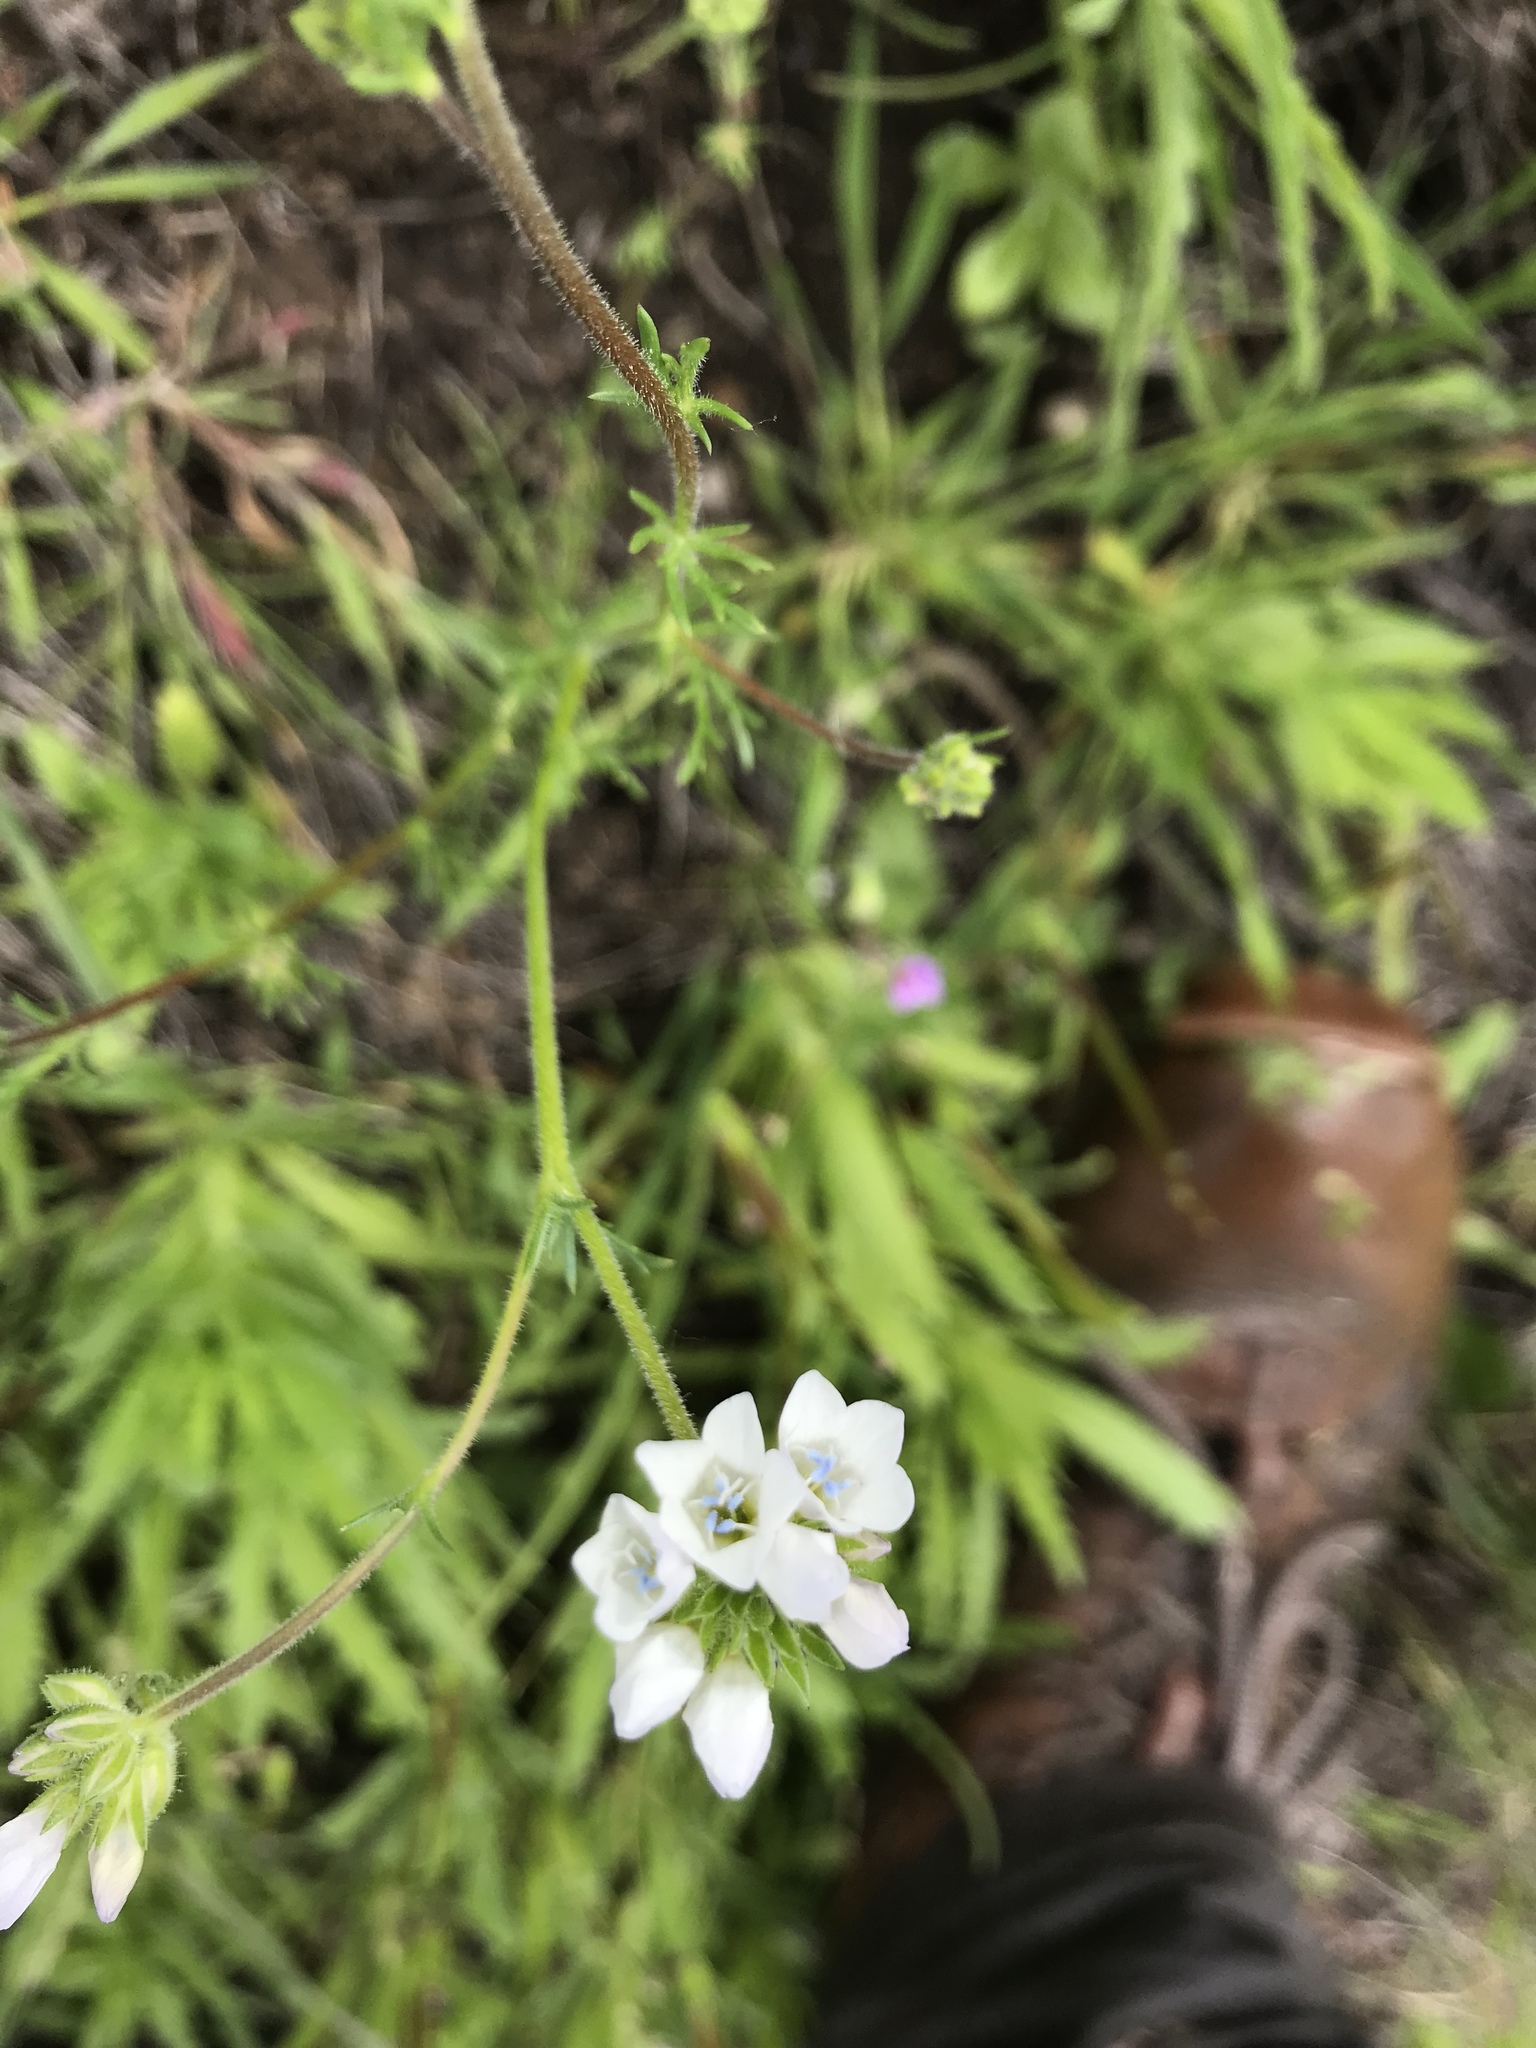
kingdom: Plantae
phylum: Tracheophyta
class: Magnoliopsida
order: Ericales
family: Polemoniaceae
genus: Gilia
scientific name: Gilia angelensis
